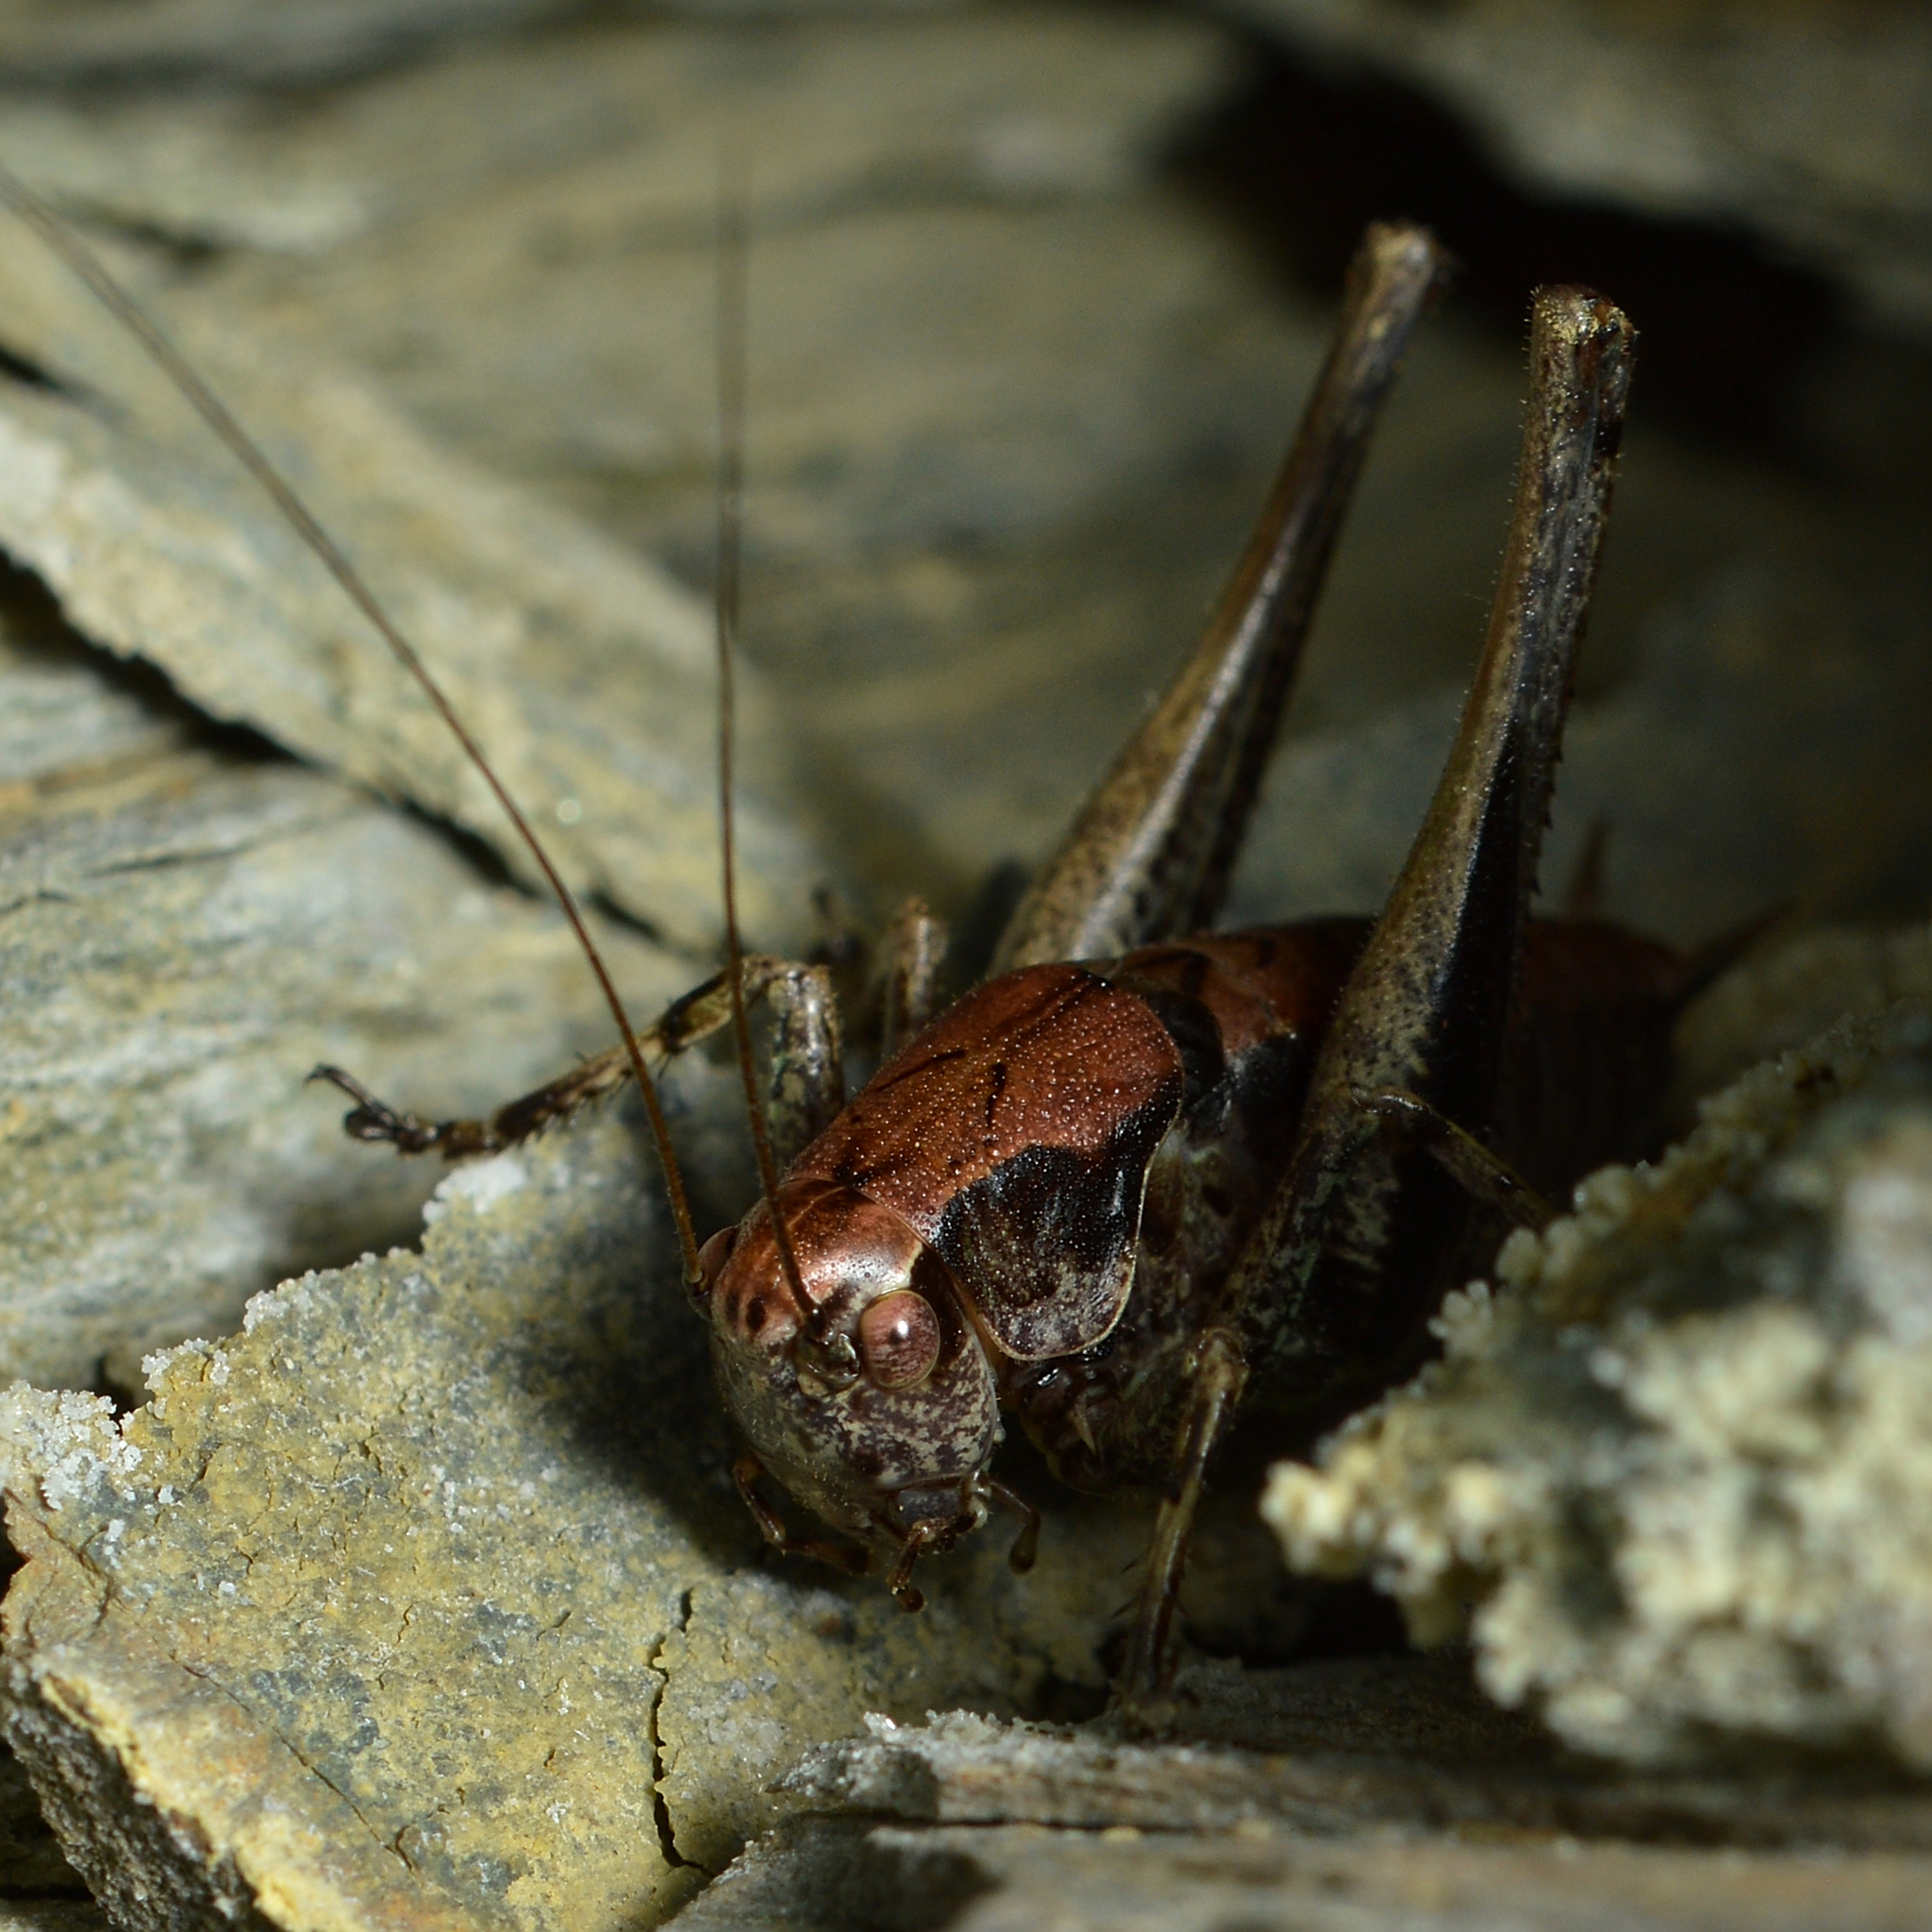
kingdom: Animalia
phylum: Arthropoda
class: Insecta
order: Orthoptera
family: Tettigoniidae
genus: Pholidoptera
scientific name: Pholidoptera griseoaptera
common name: Dark bush-cricket
